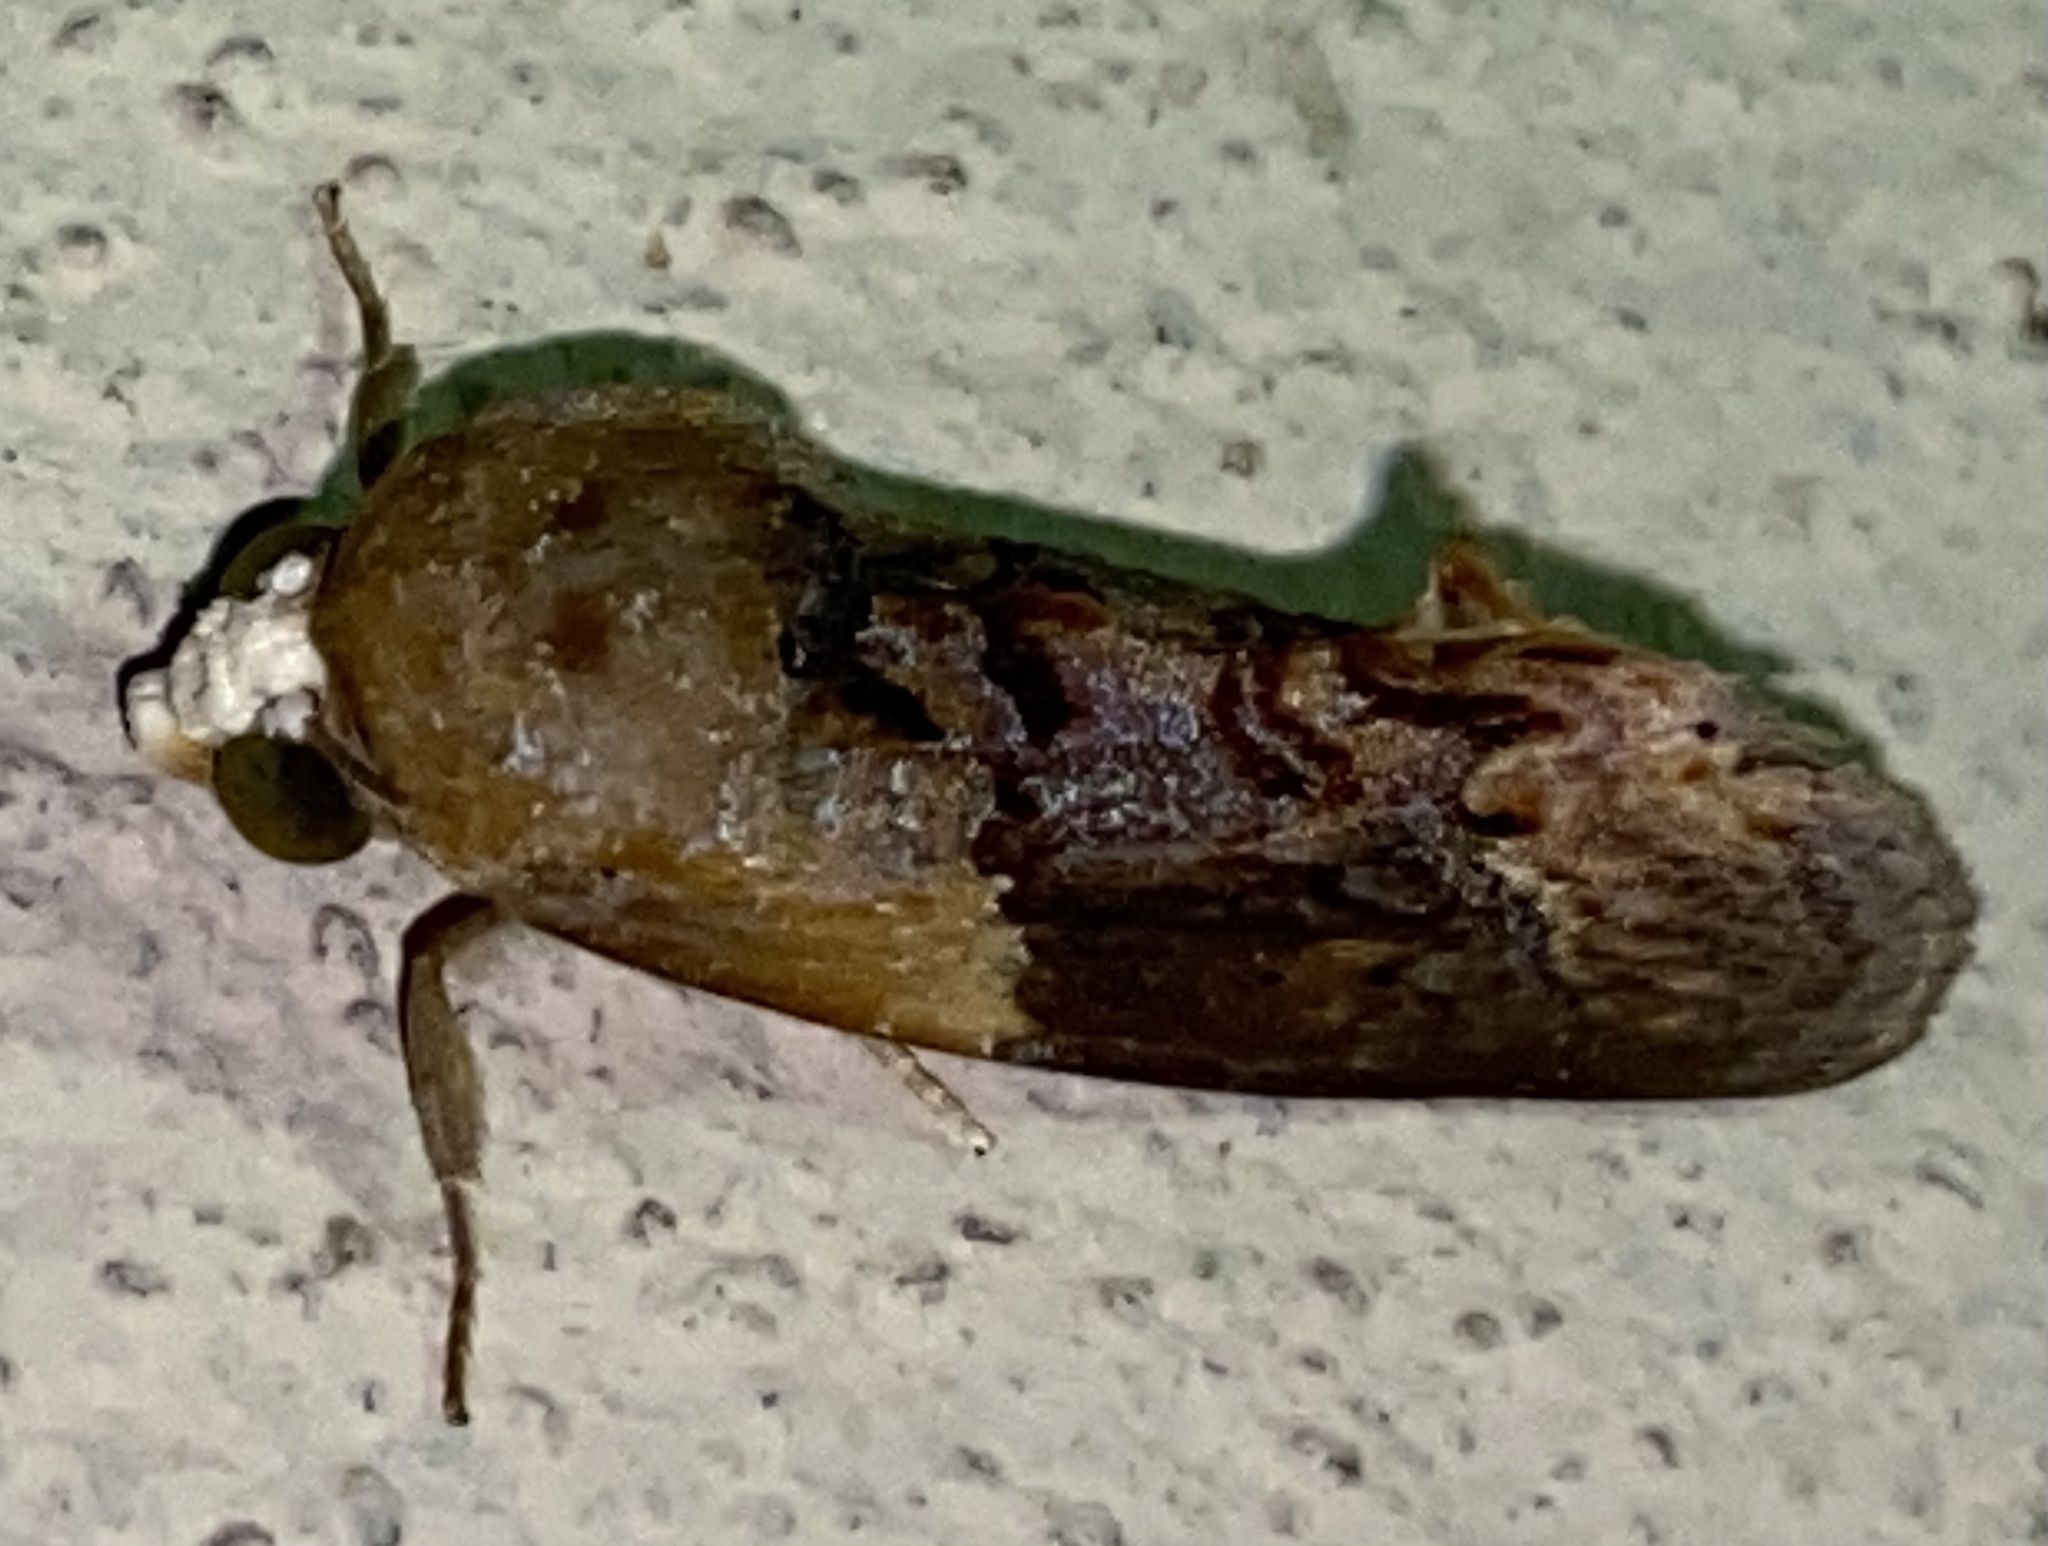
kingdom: Animalia
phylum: Arthropoda
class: Insecta
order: Lepidoptera
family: Erebidae
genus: Gonodonta
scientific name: Gonodonta bidens
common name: Cutworm moth
